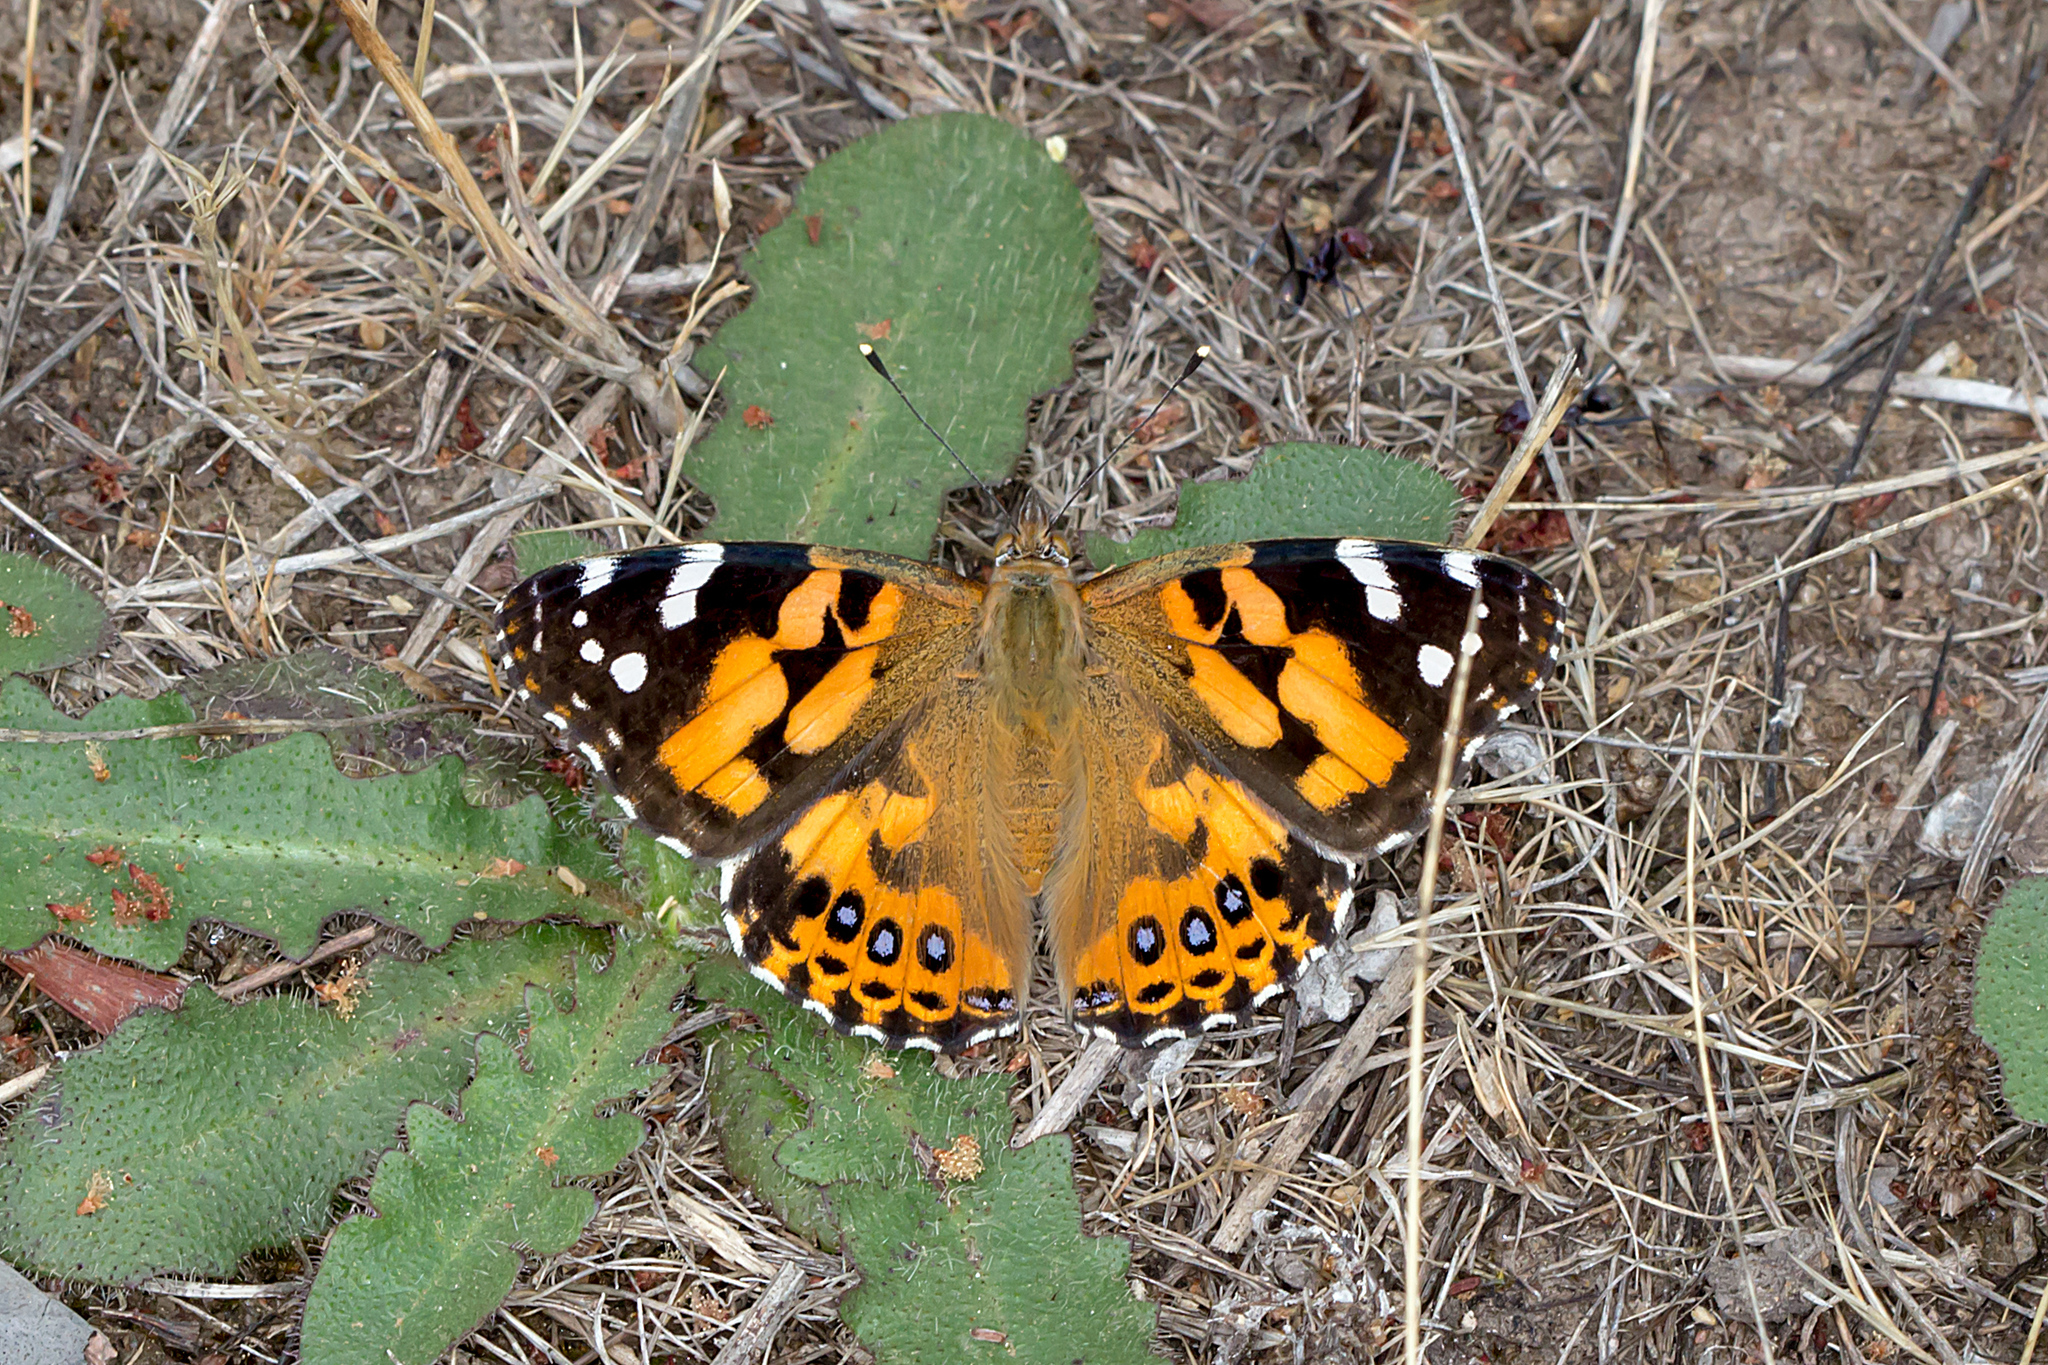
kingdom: Animalia
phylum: Arthropoda
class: Insecta
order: Lepidoptera
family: Nymphalidae
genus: Vanessa
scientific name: Vanessa kershawi
